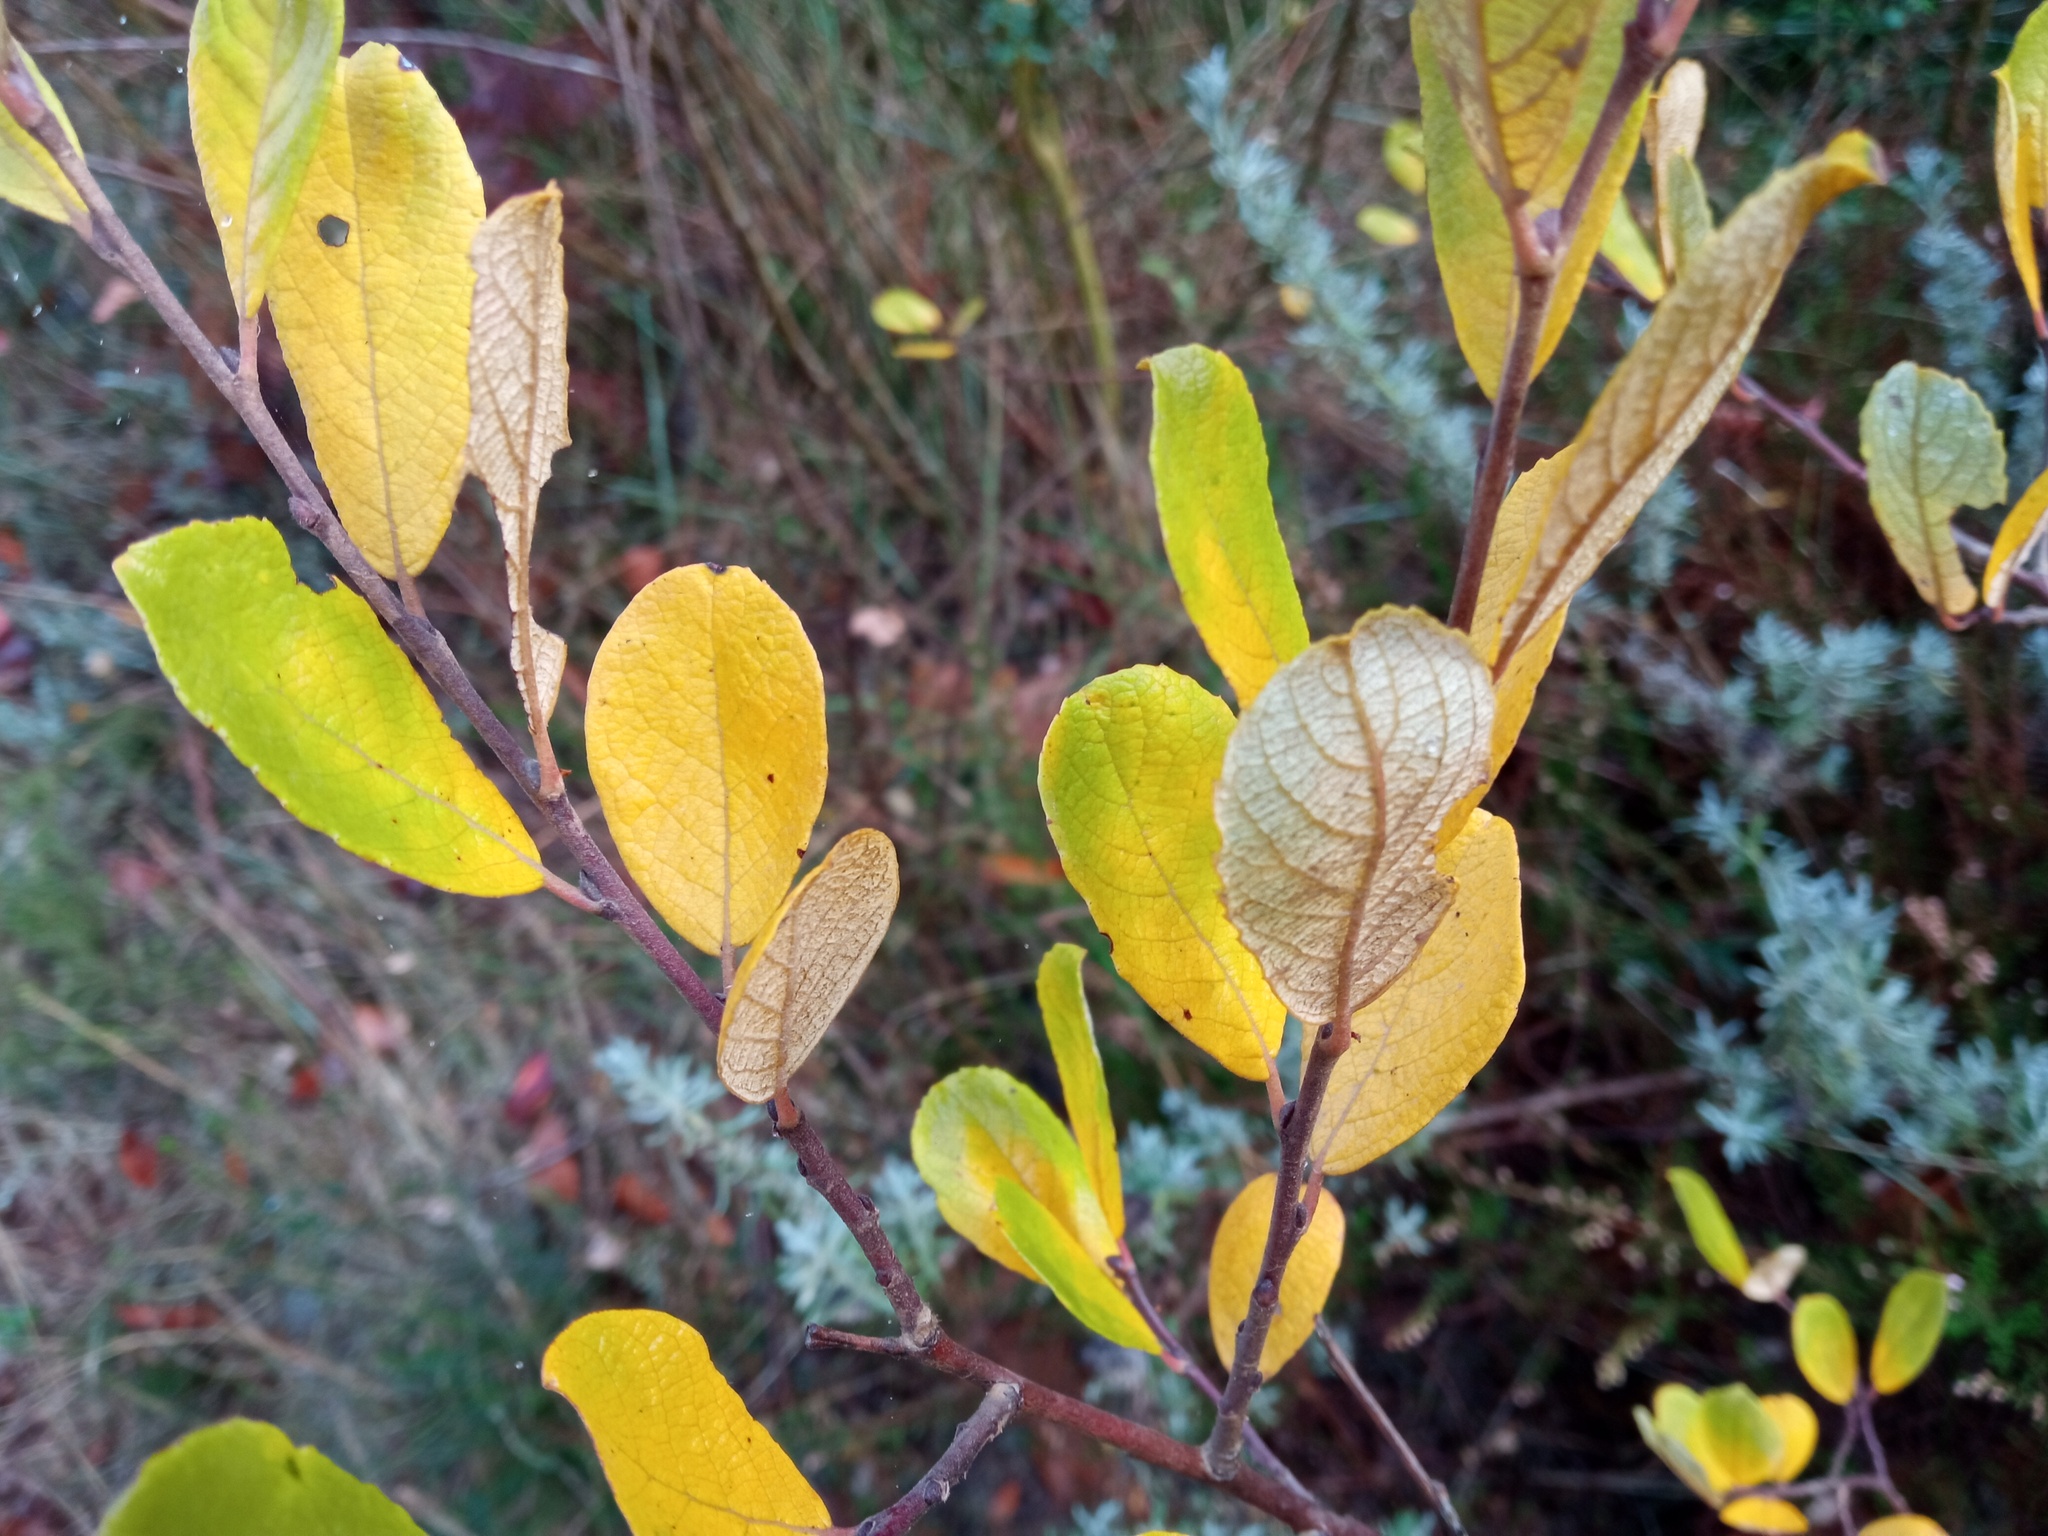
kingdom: Plantae
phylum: Tracheophyta
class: Magnoliopsida
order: Malpighiales
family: Salicaceae
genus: Salix
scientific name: Salix atrocinerea
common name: Rusty willow
